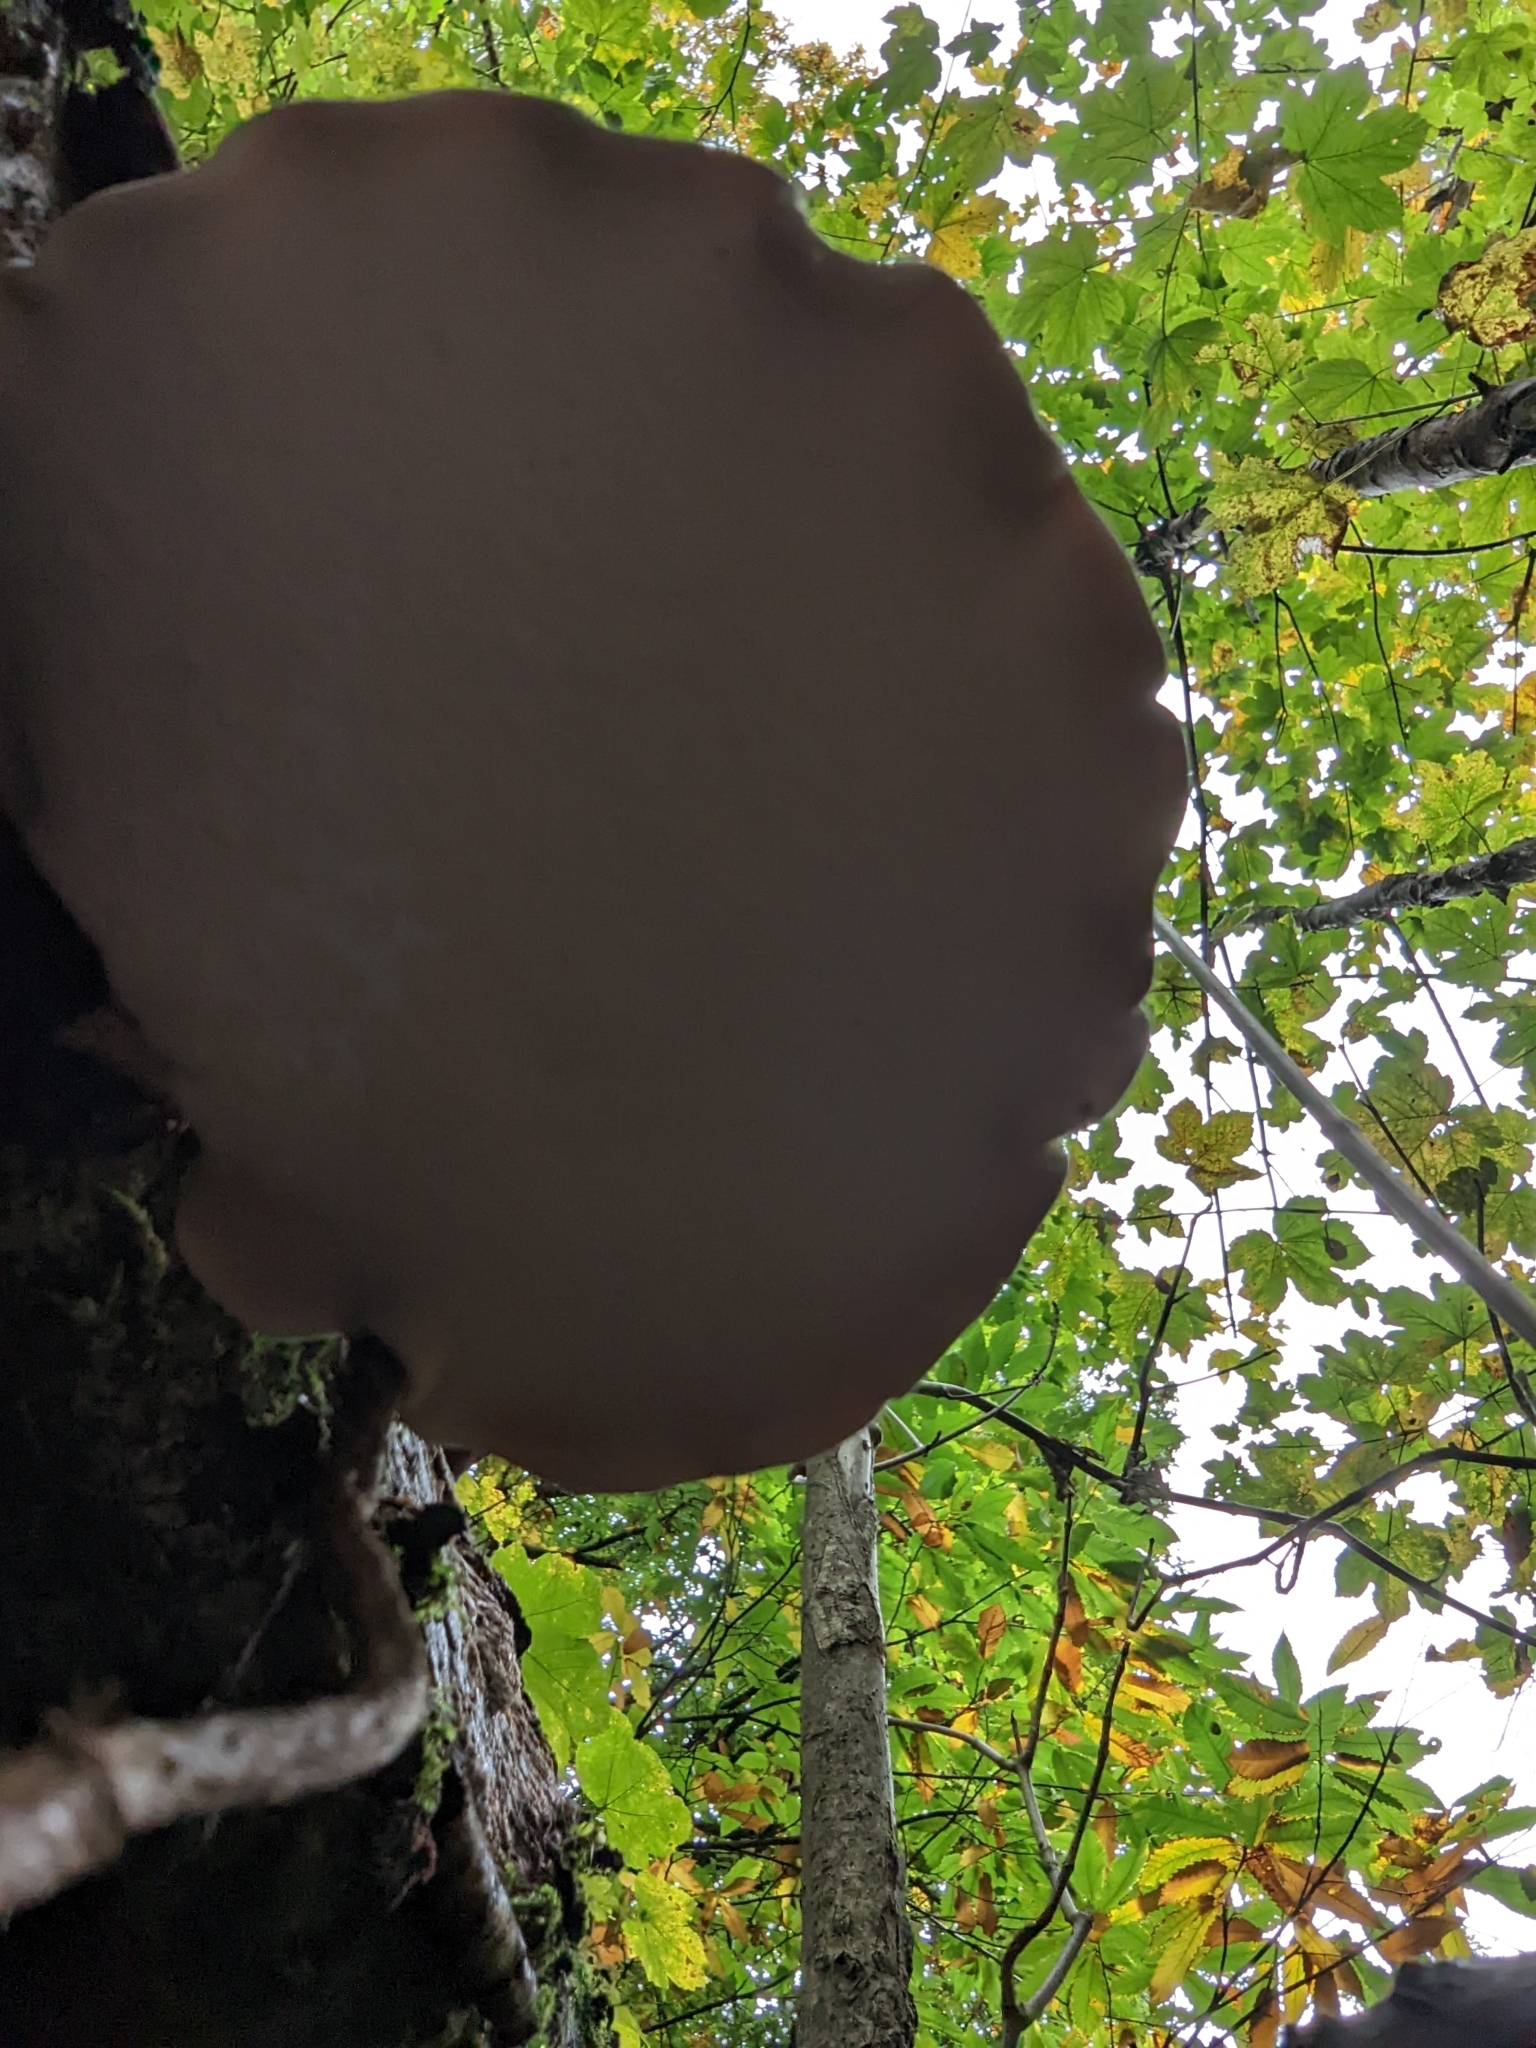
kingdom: Fungi
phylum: Basidiomycota
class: Agaricomycetes
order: Polyporales
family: Fomitopsidaceae
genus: Fomitopsis
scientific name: Fomitopsis betulina
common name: Birch polypore
